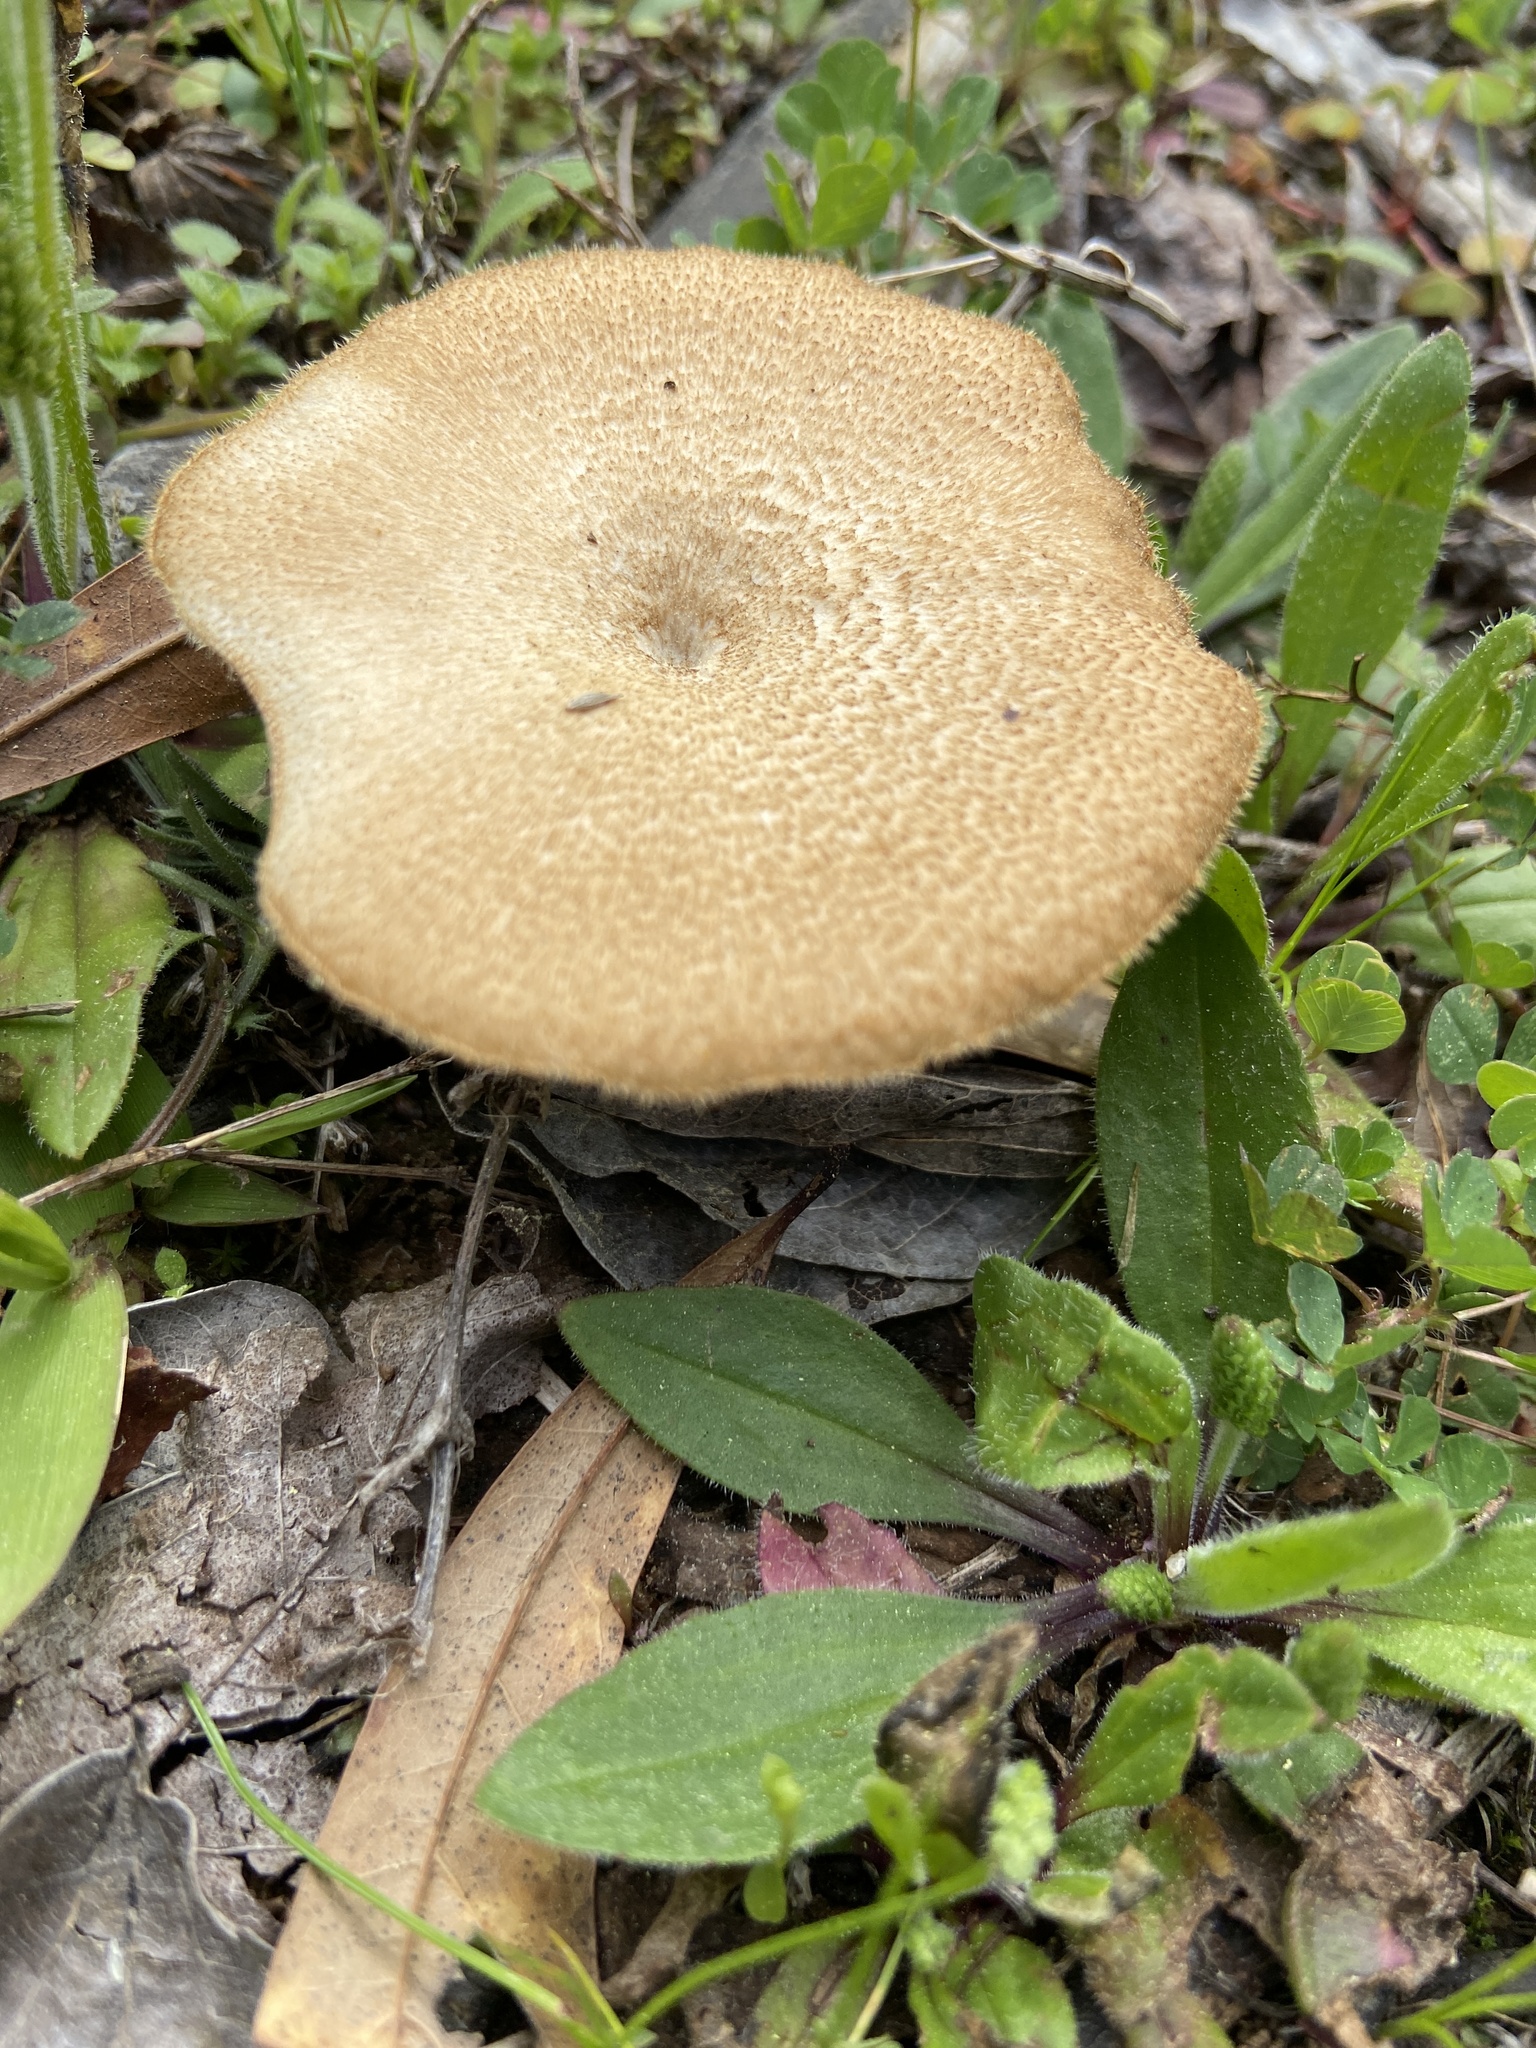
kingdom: Fungi
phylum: Basidiomycota
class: Agaricomycetes
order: Polyporales
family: Polyporaceae
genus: Lentinus
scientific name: Lentinus arcularius
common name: Spring polypore
